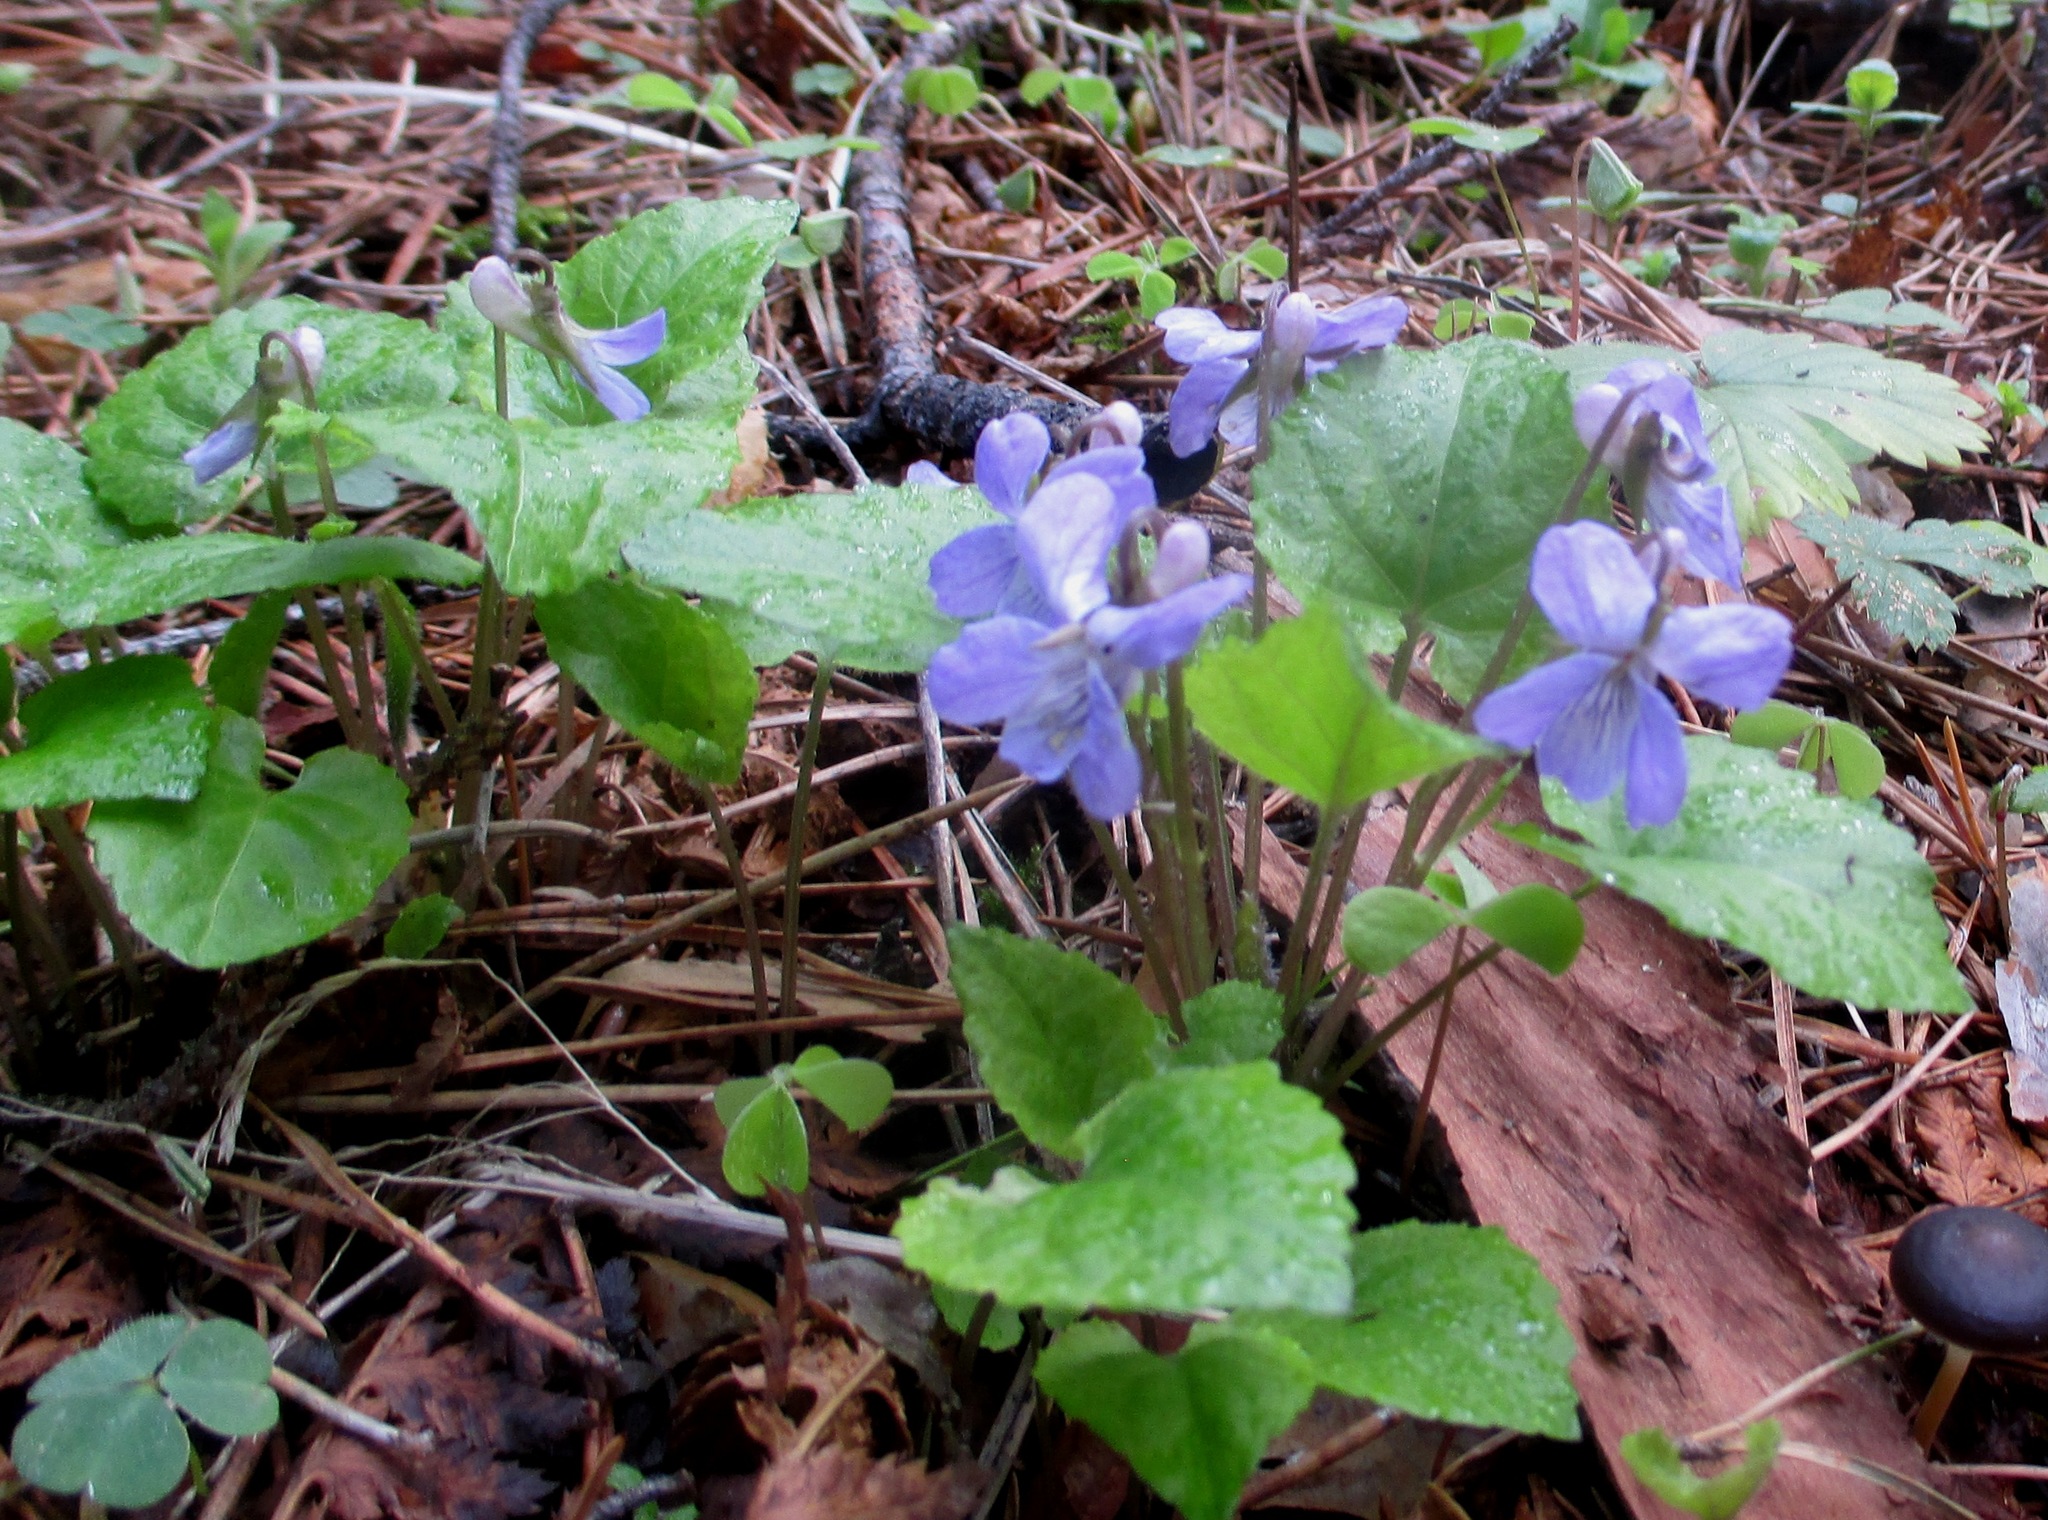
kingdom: Plantae
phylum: Tracheophyta
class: Magnoliopsida
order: Malpighiales
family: Violaceae
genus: Viola
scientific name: Viola selkirkii
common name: Selkirk's violet
